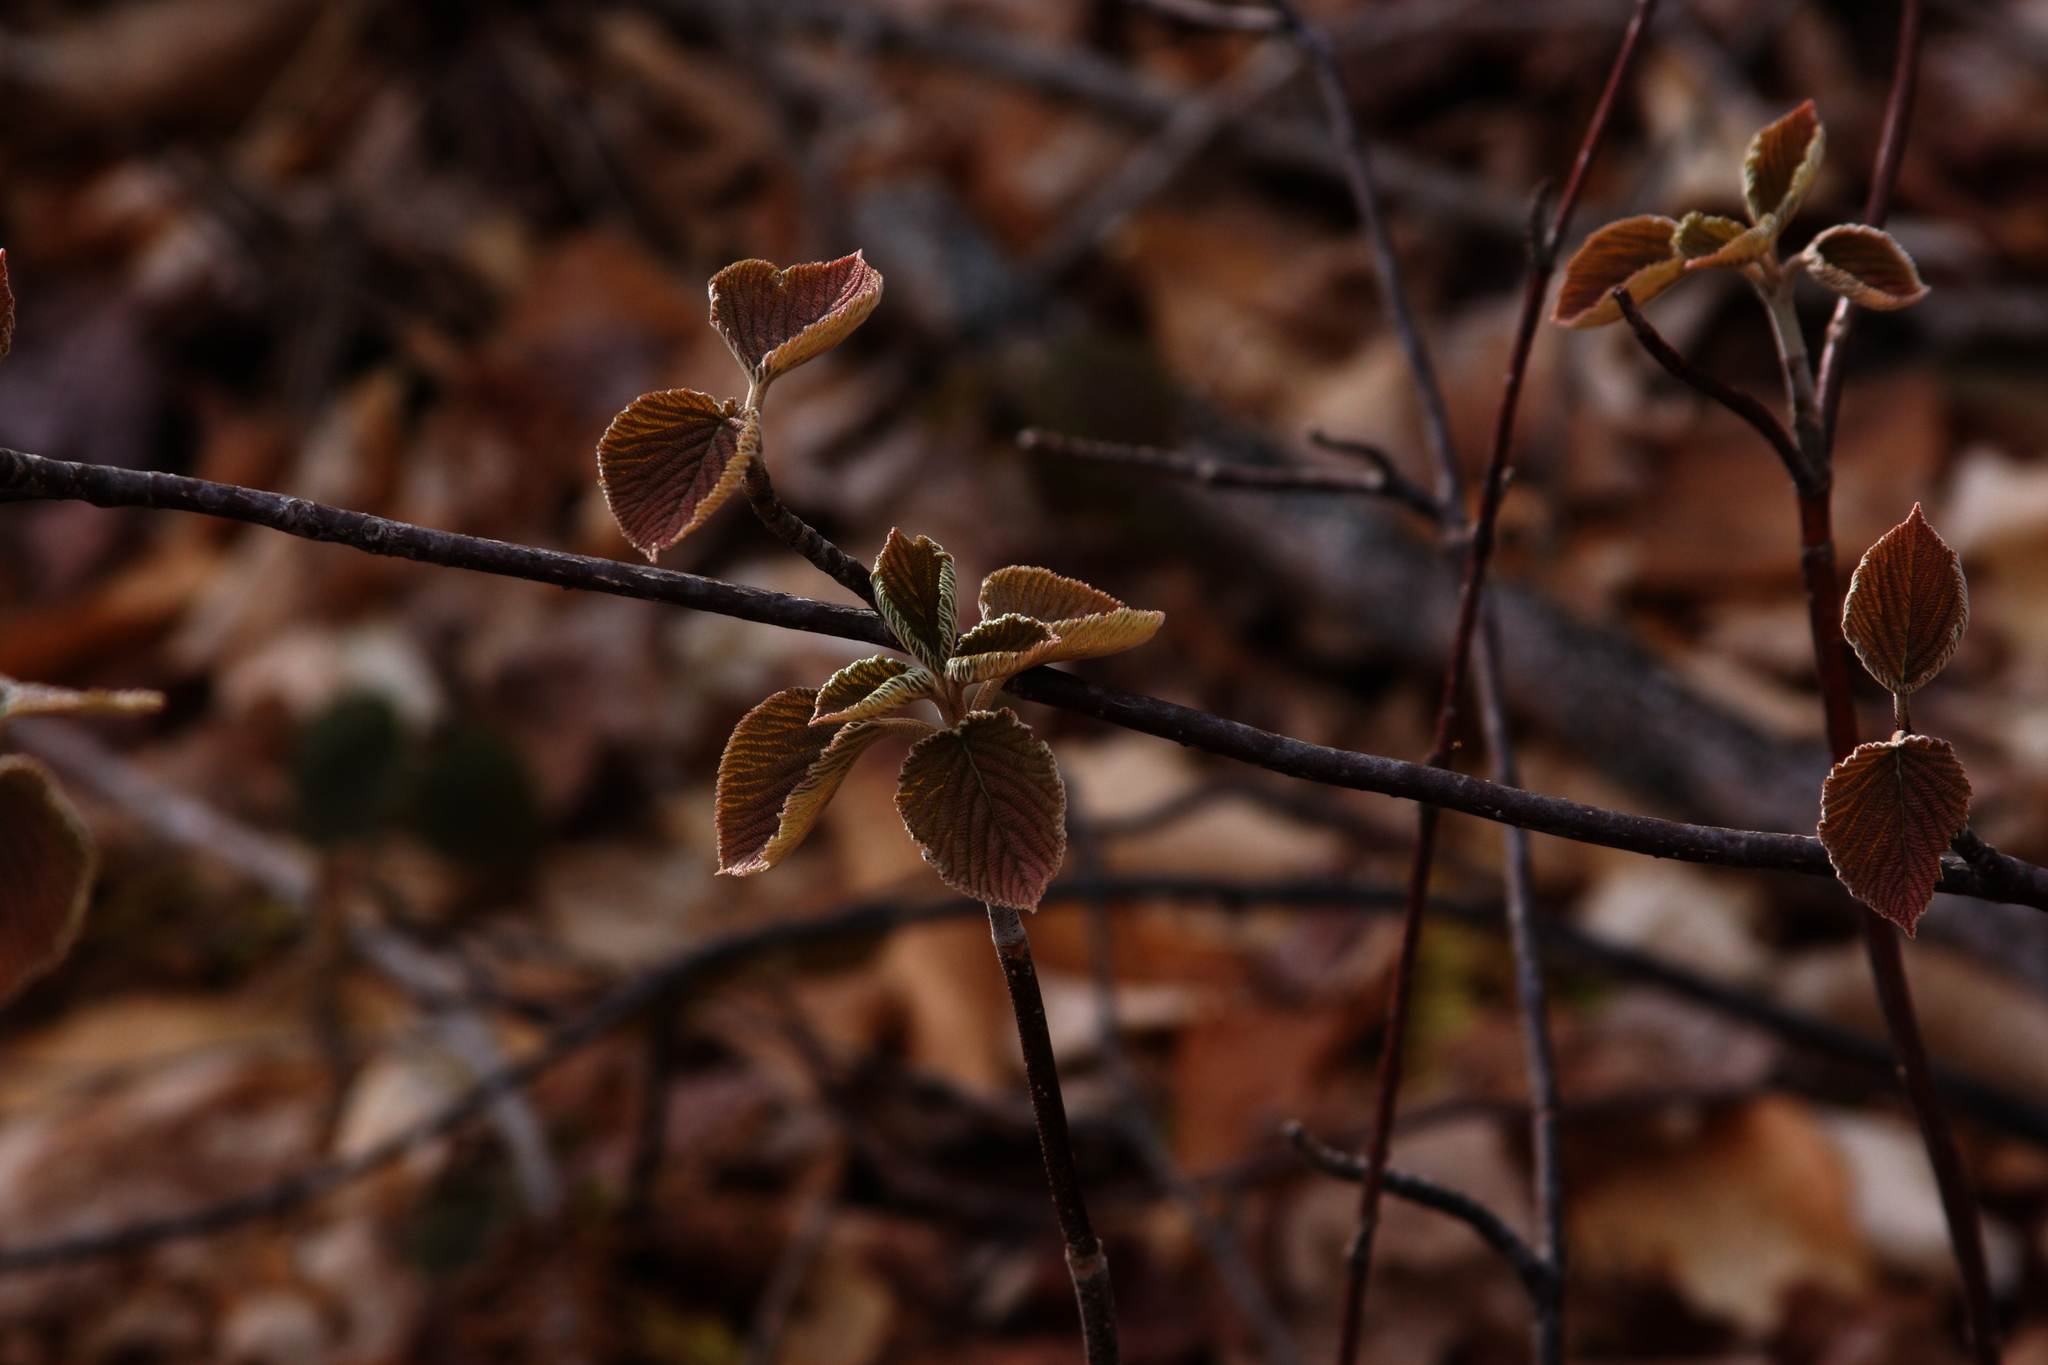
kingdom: Plantae
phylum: Tracheophyta
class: Magnoliopsida
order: Dipsacales
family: Viburnaceae
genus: Viburnum
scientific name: Viburnum lantanoides
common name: Hobblebush
